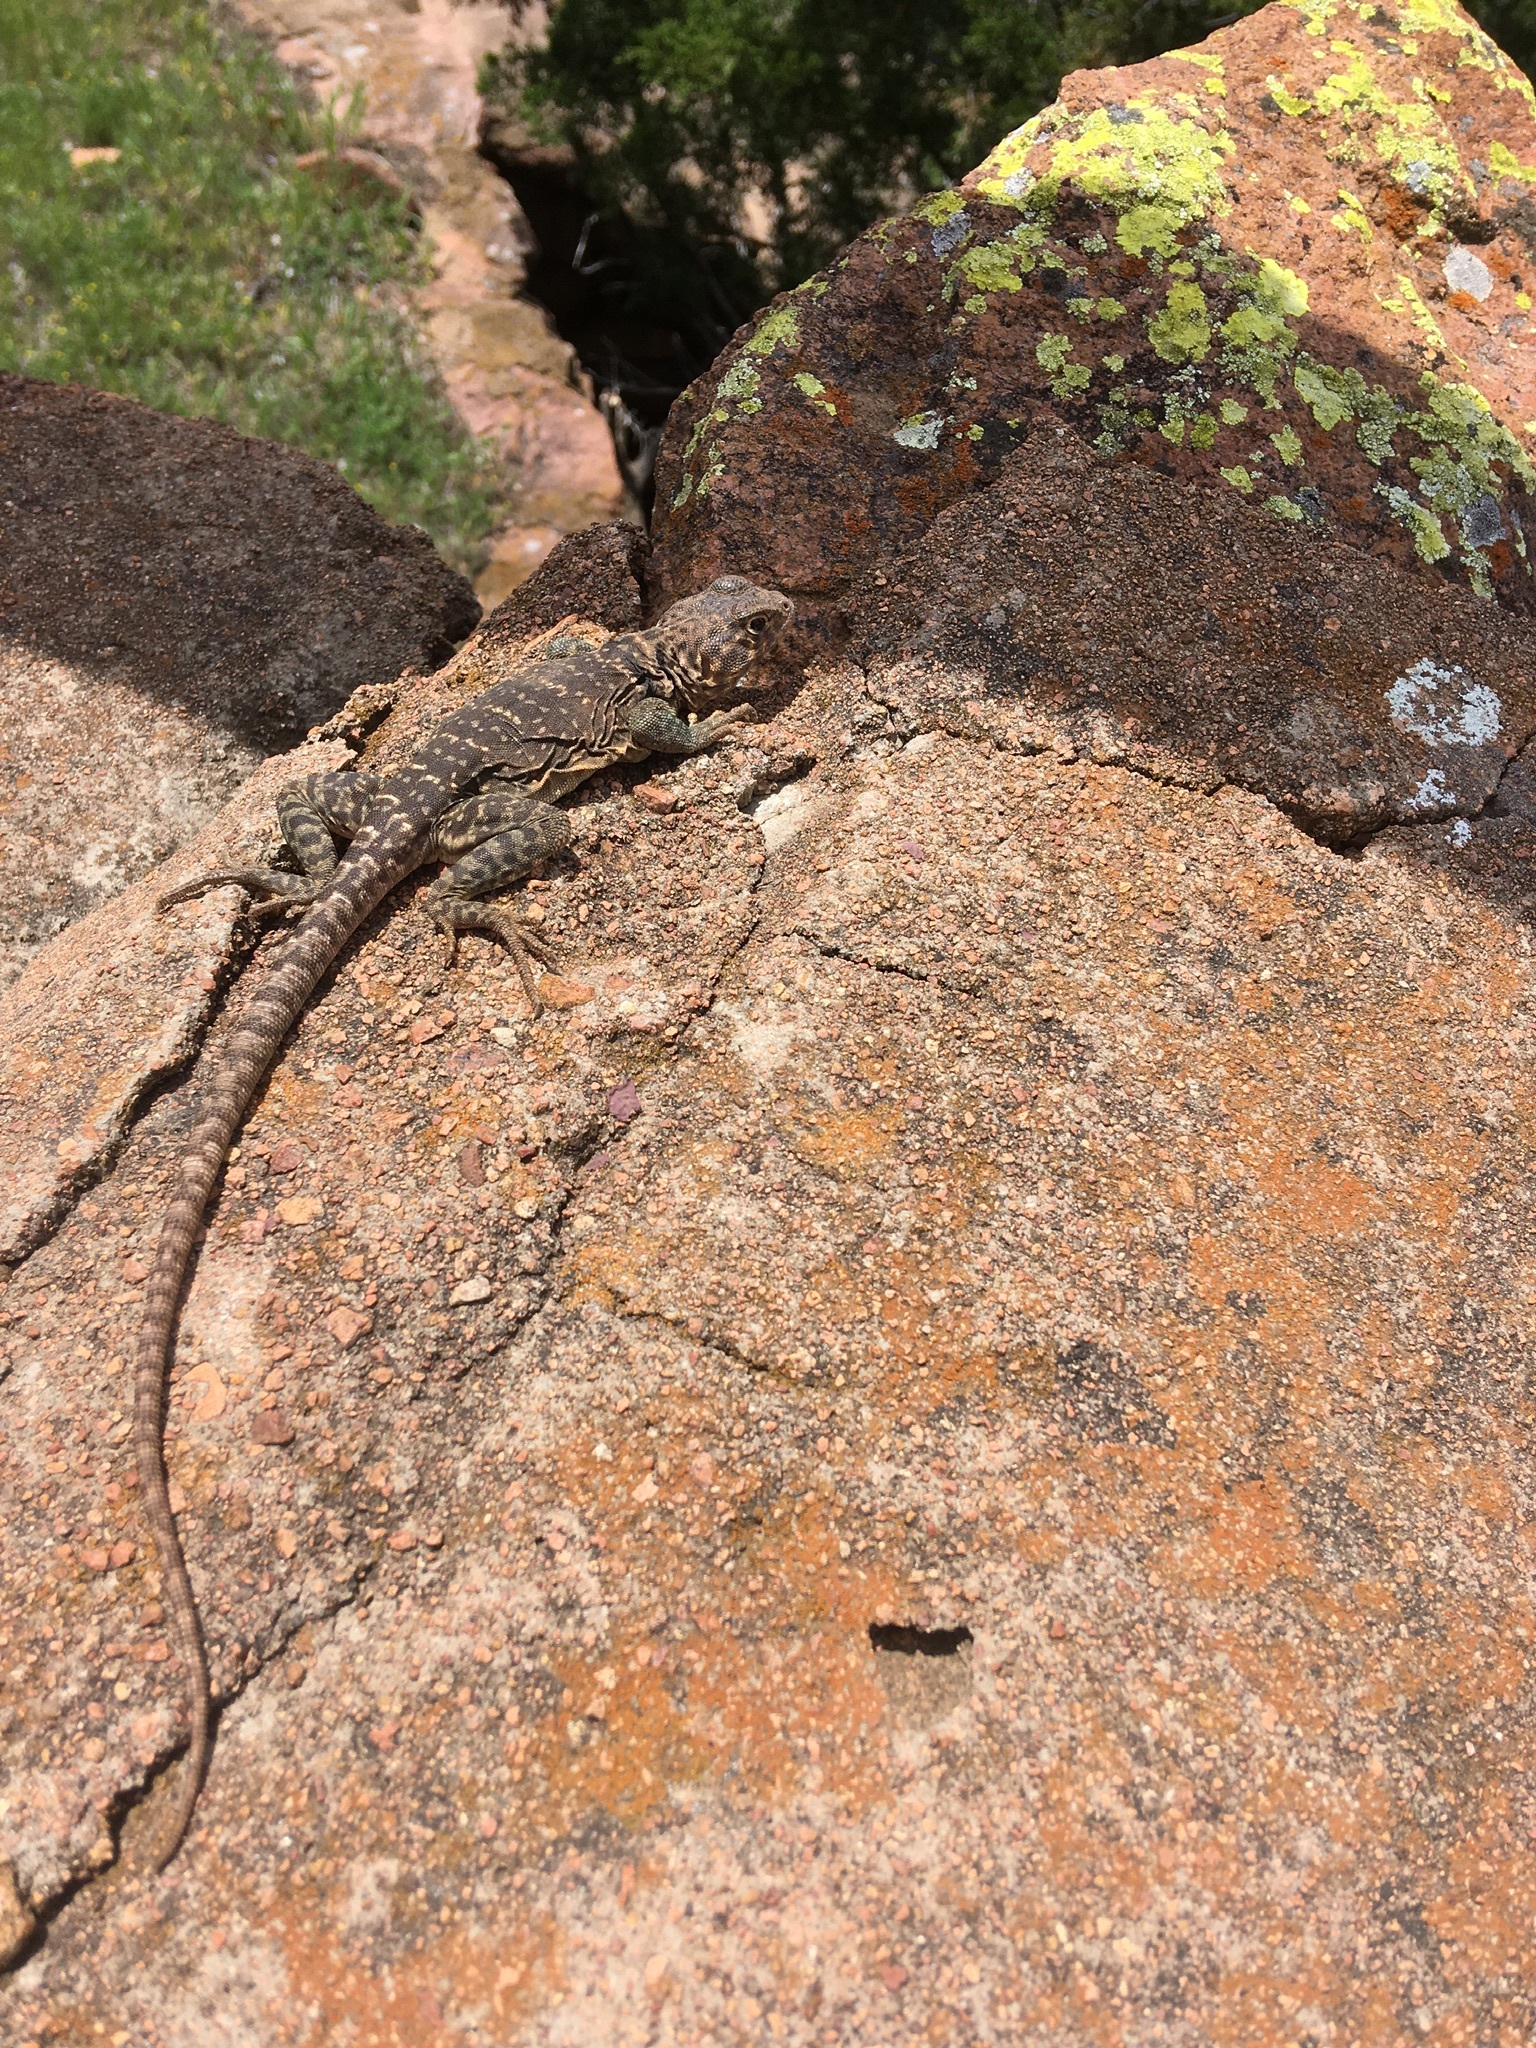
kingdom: Animalia
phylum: Chordata
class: Squamata
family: Crotaphytidae
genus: Crotaphytus
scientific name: Crotaphytus collaris
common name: Collared lizard
